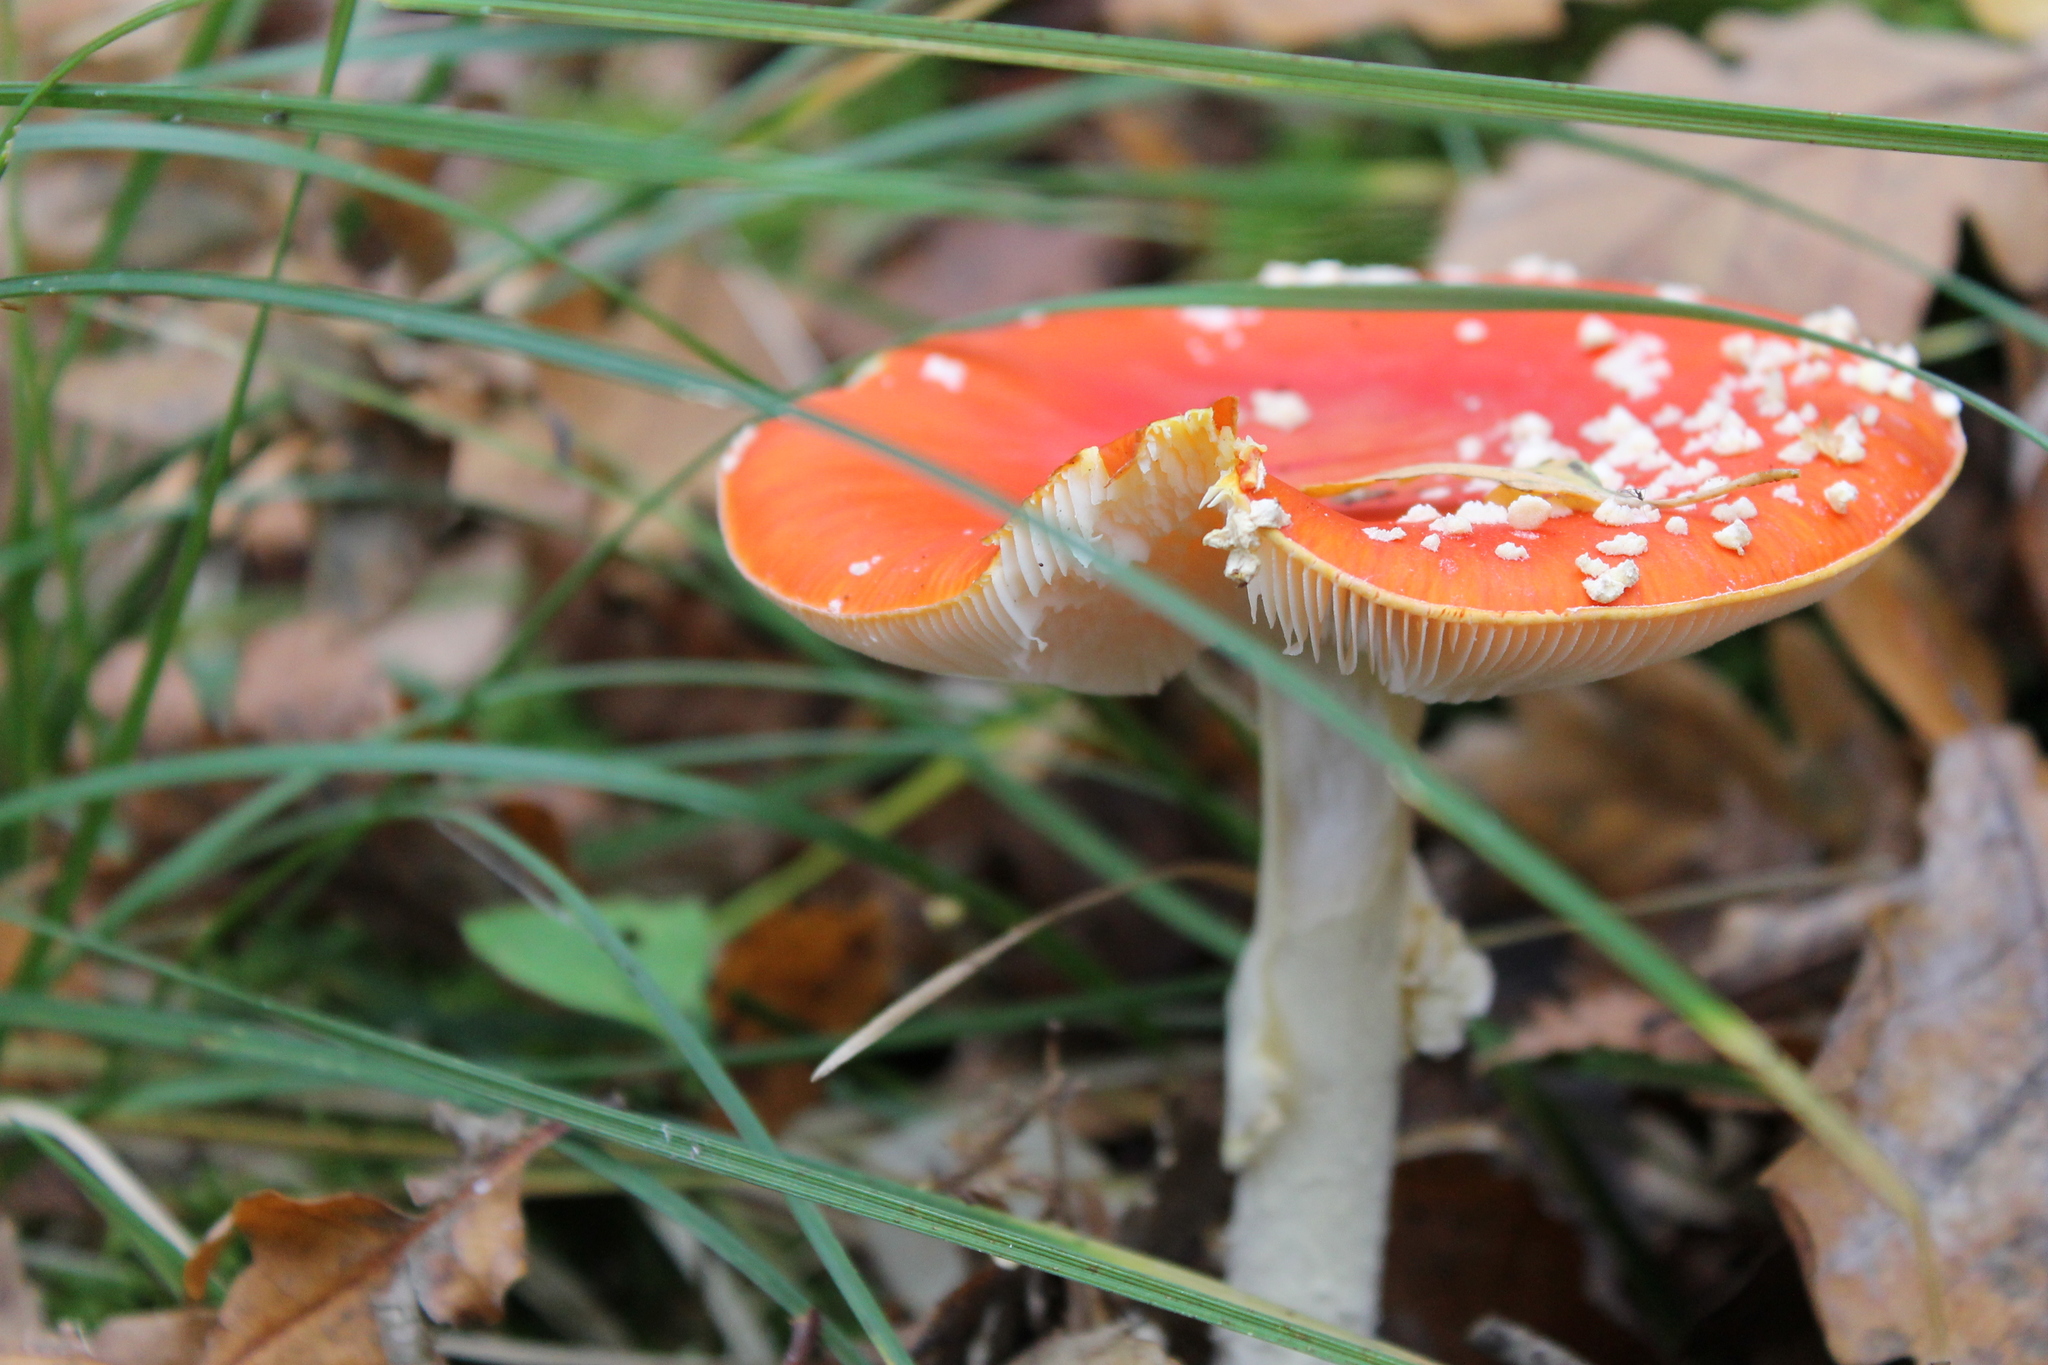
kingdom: Fungi
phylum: Basidiomycota
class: Agaricomycetes
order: Agaricales
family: Amanitaceae
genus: Amanita
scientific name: Amanita muscaria
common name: Fly agaric
